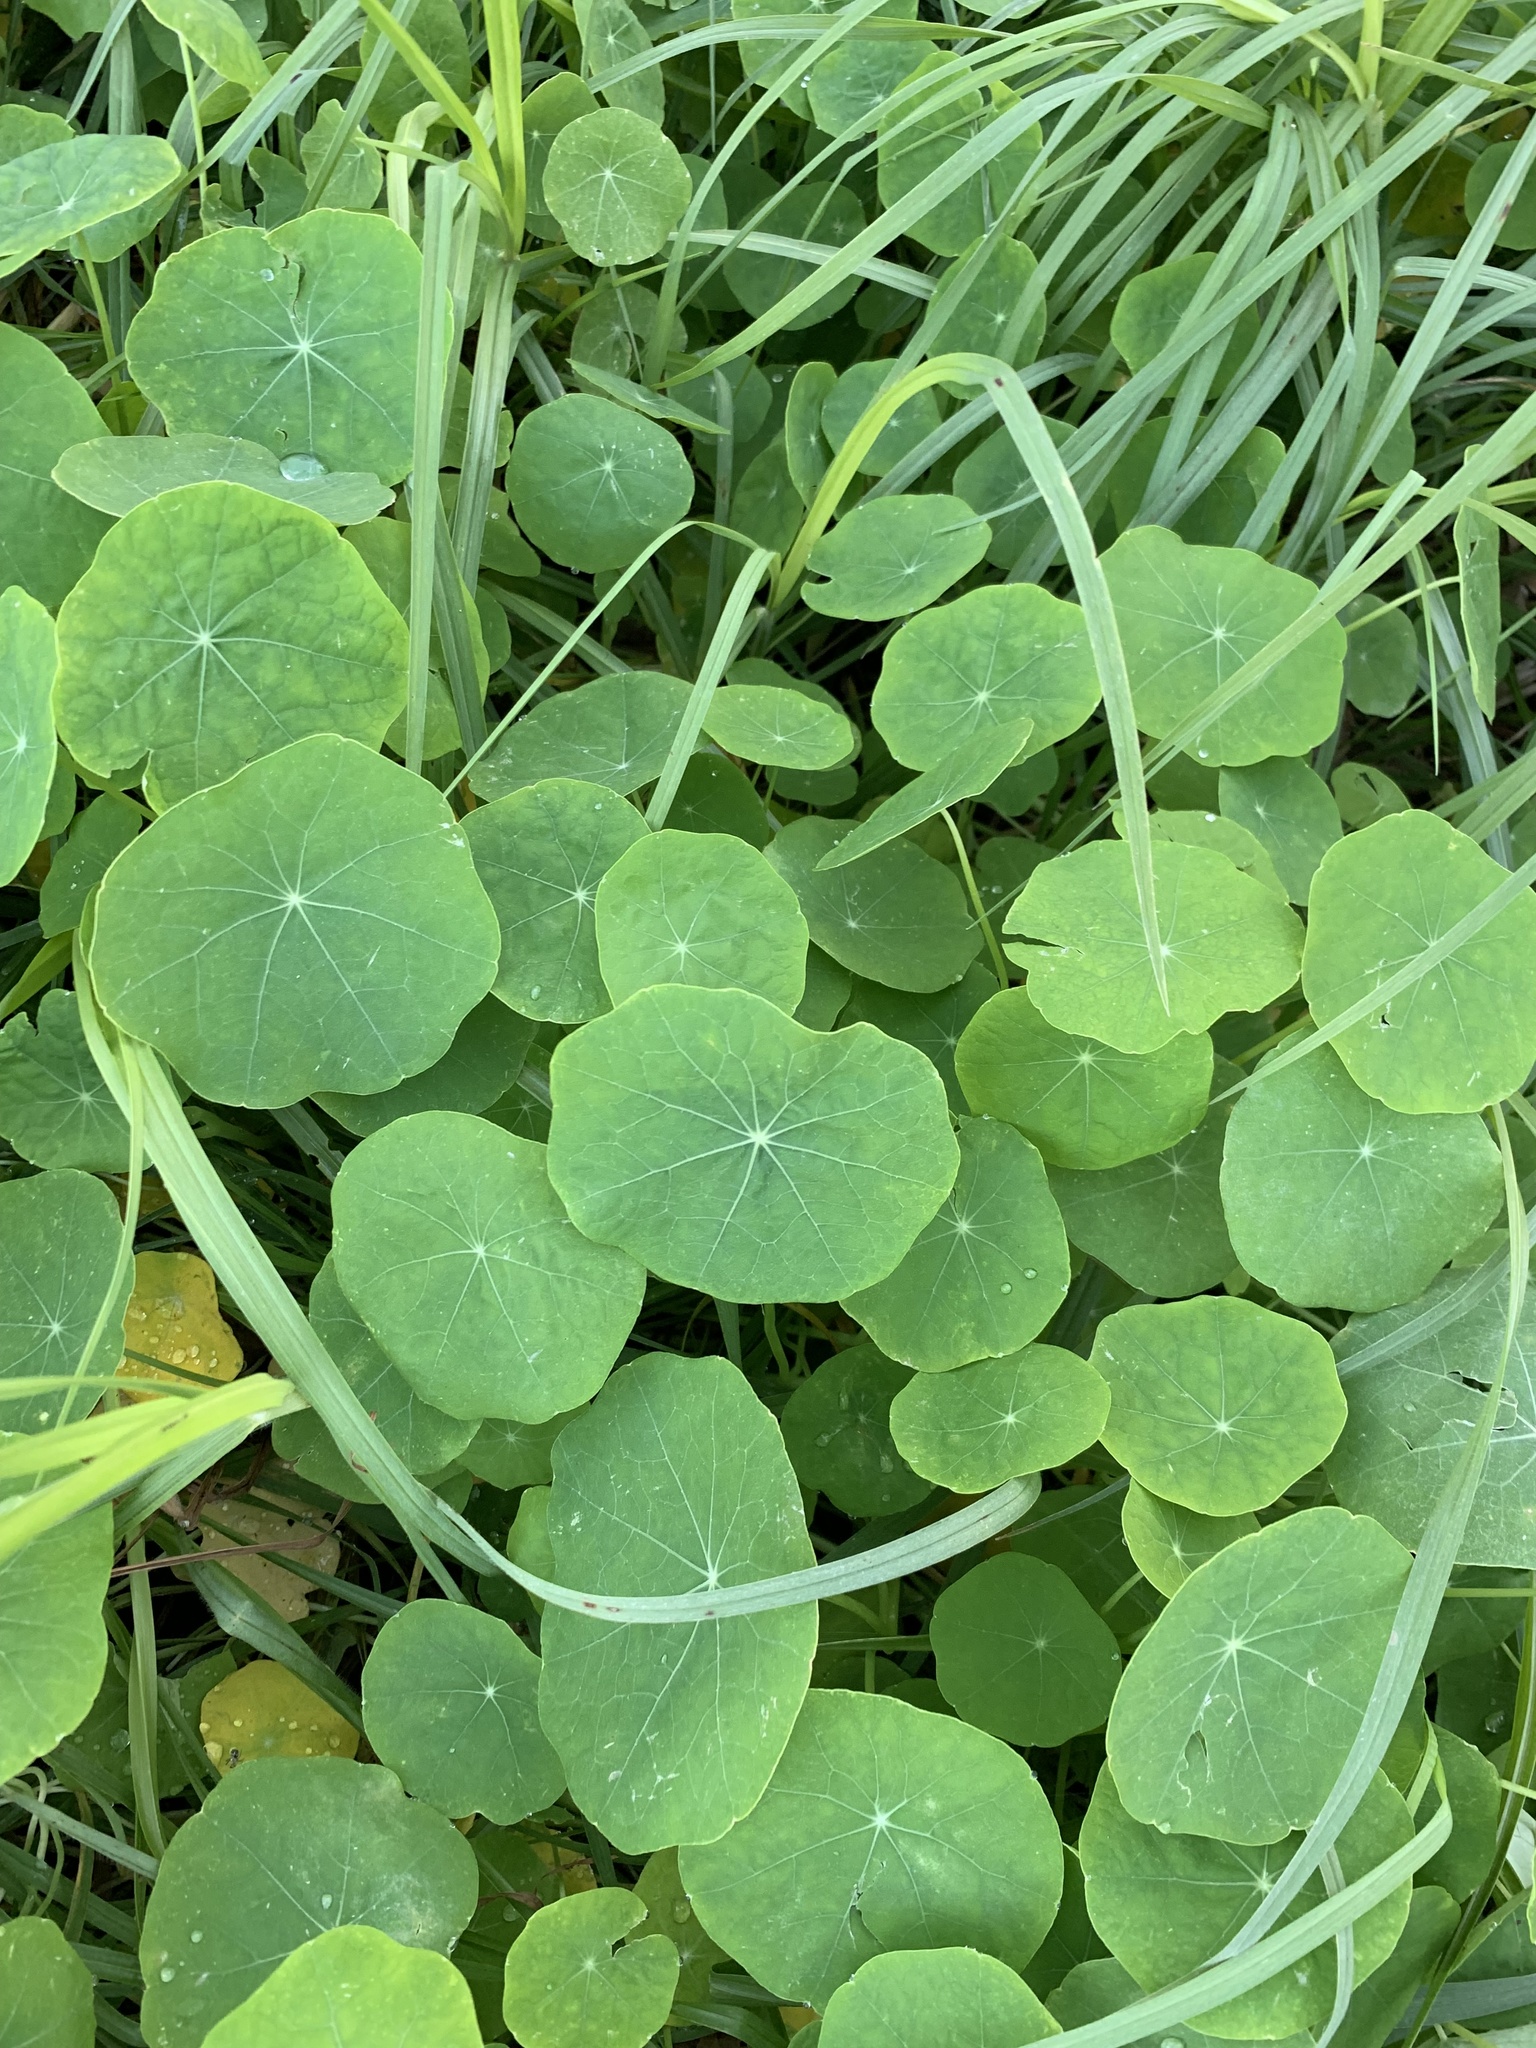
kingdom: Plantae
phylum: Tracheophyta
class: Magnoliopsida
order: Brassicales
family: Tropaeolaceae
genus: Tropaeolum
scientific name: Tropaeolum majus
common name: Nasturtium
